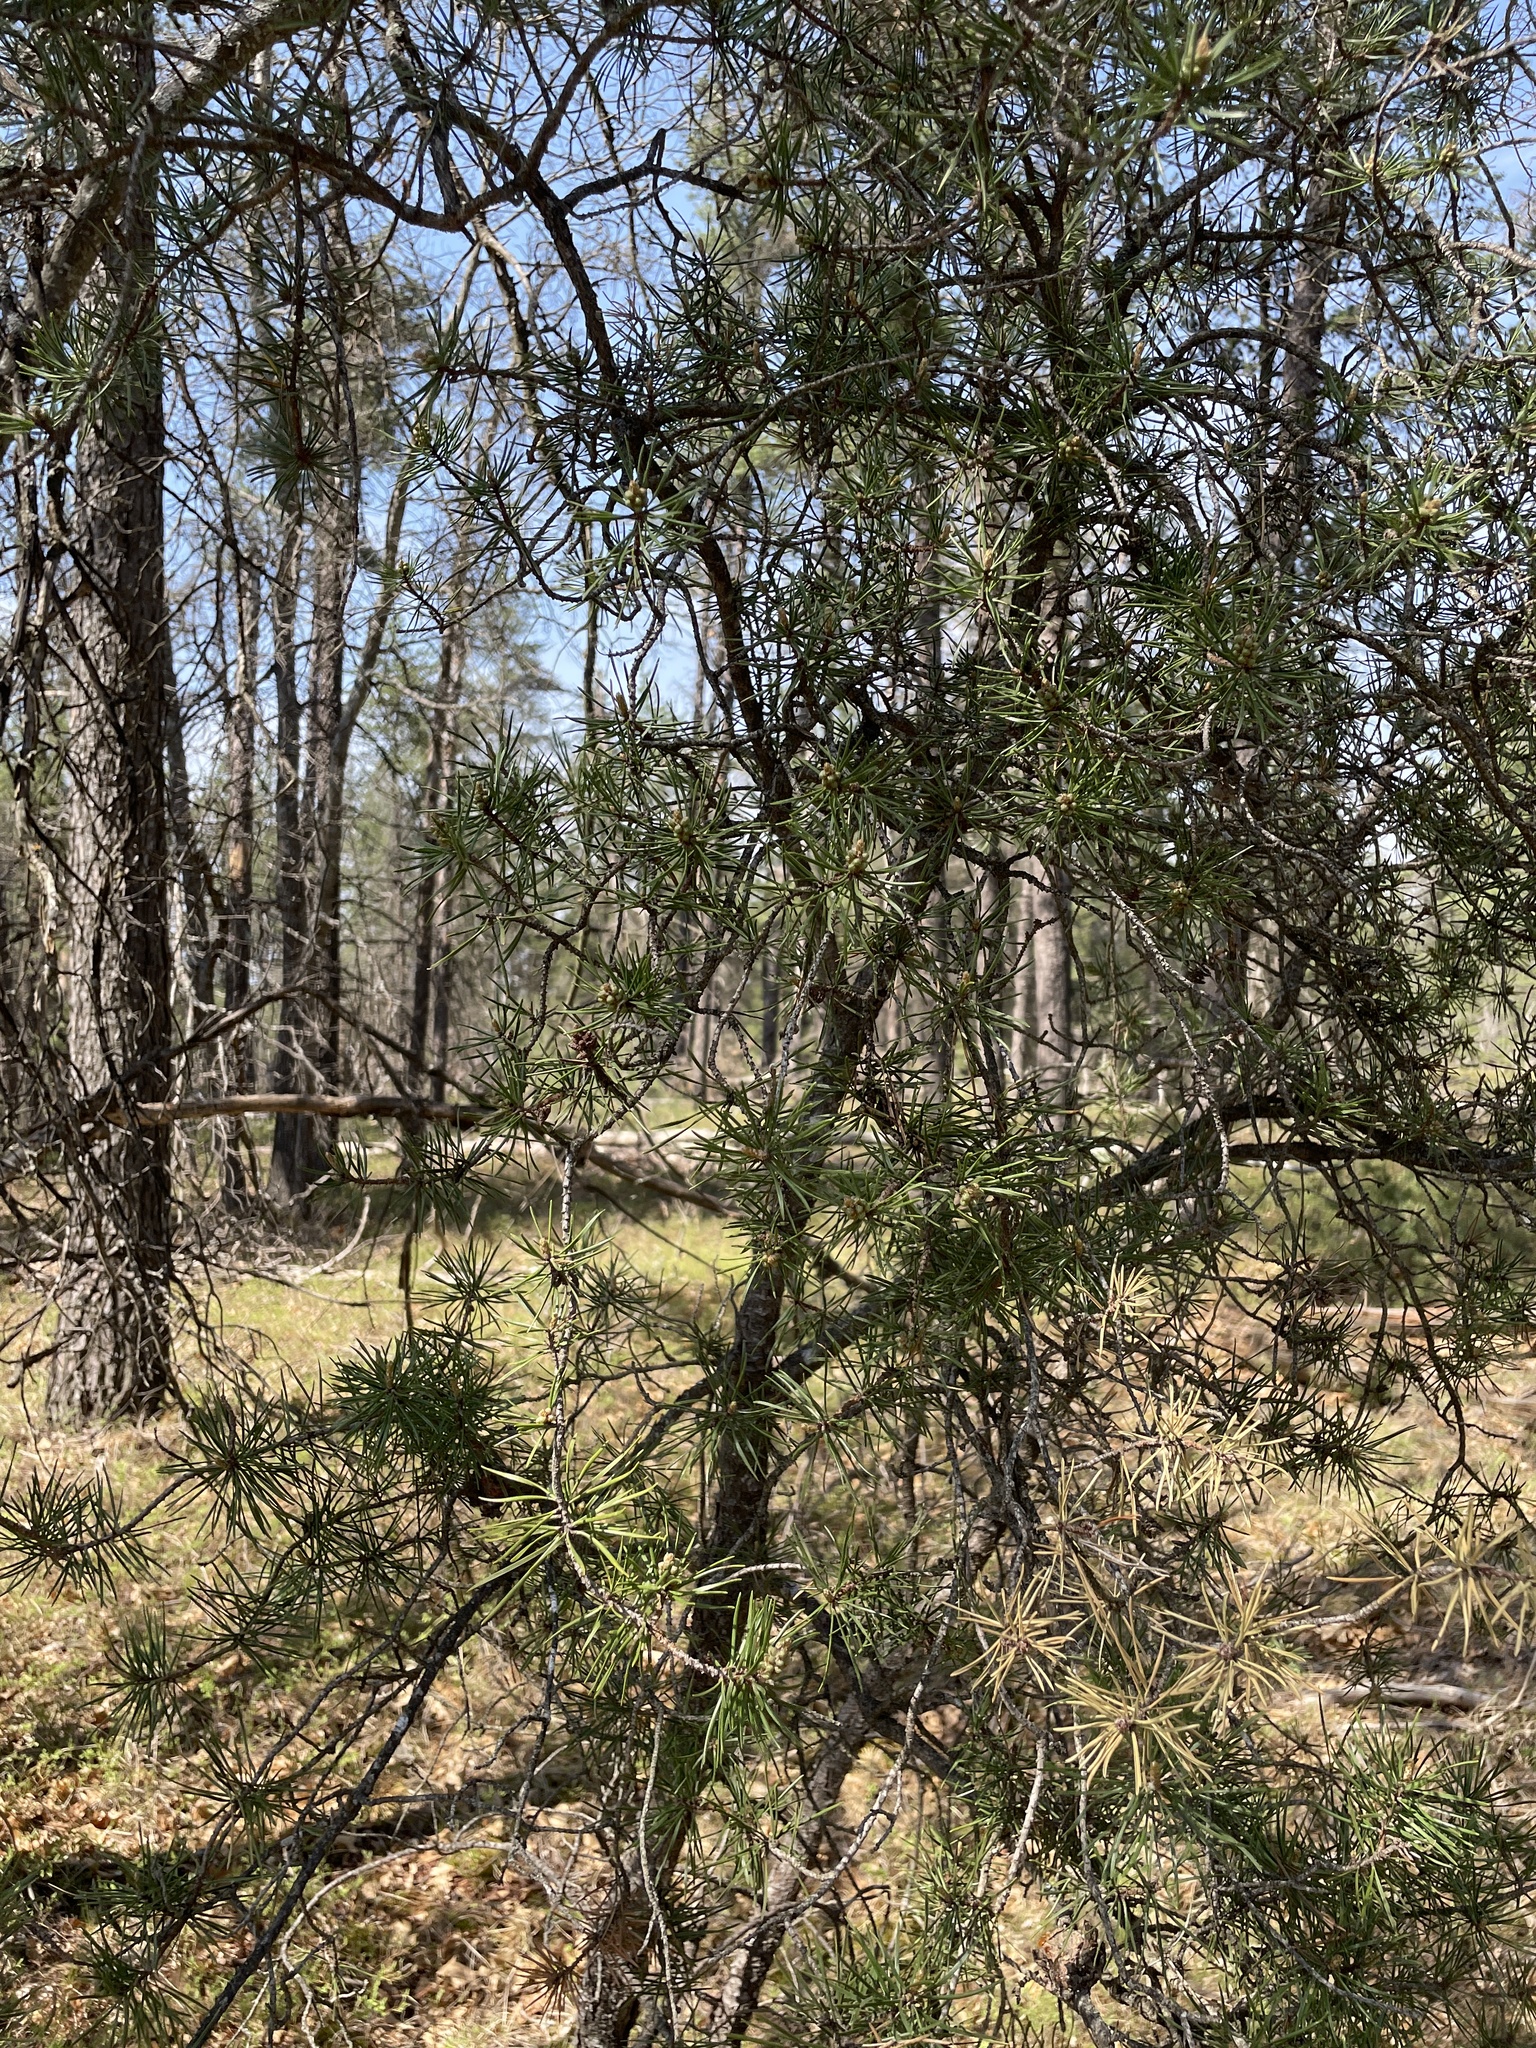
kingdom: Plantae
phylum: Tracheophyta
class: Pinopsida
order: Pinales
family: Pinaceae
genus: Pinus
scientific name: Pinus banksiana
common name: Jack pine
